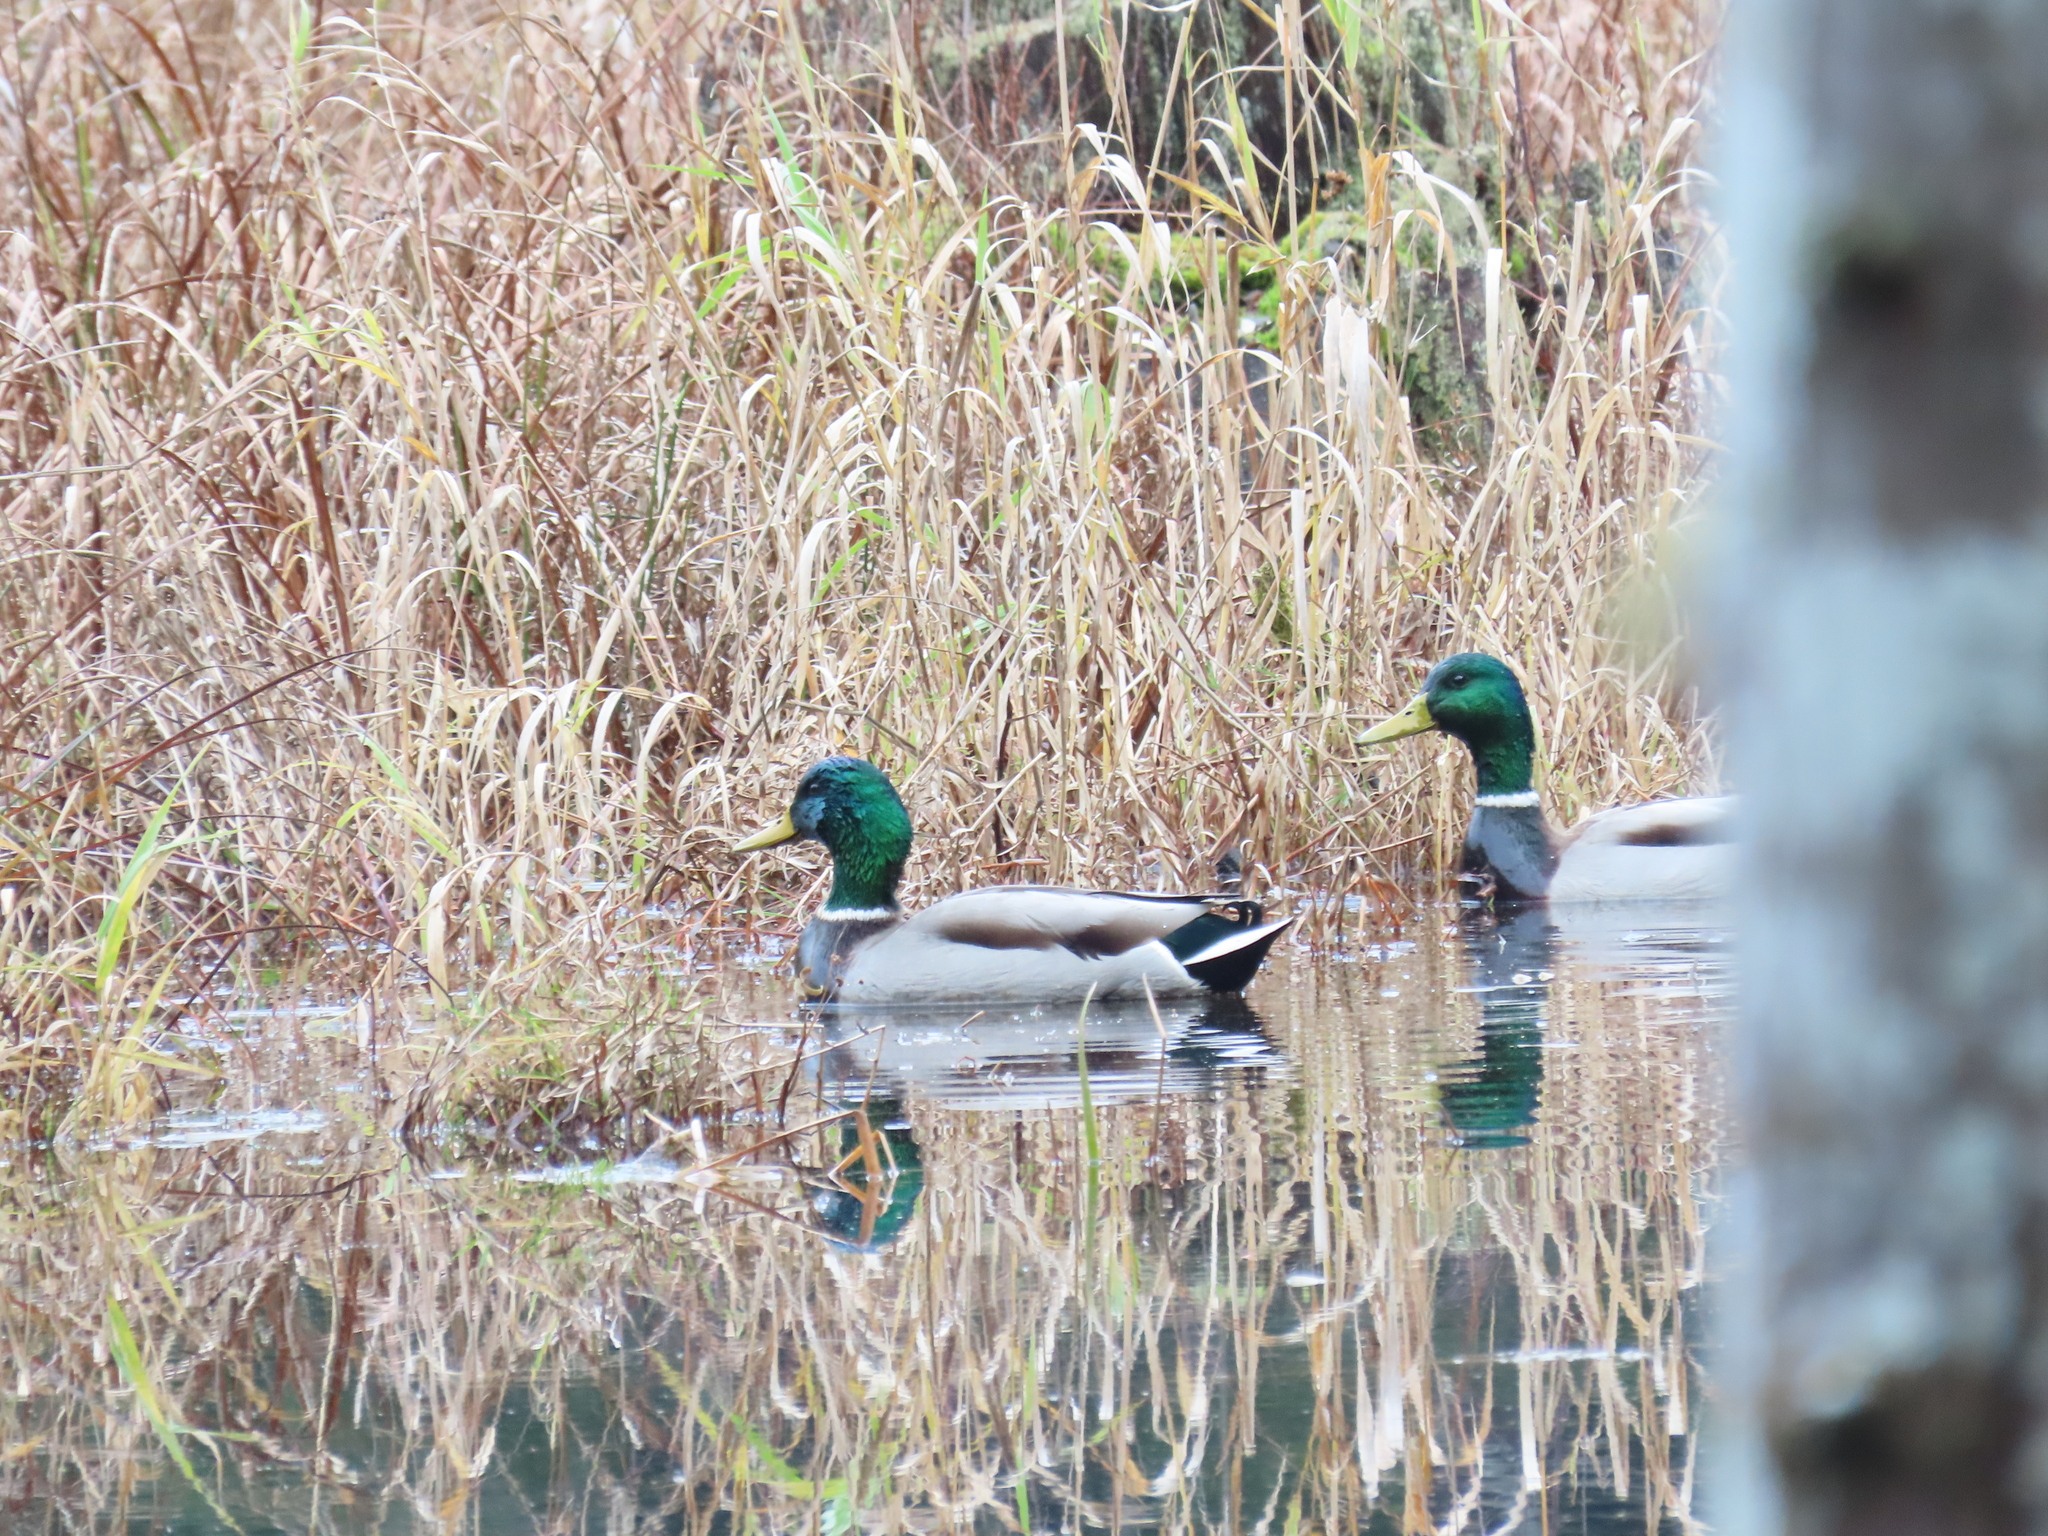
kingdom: Animalia
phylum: Chordata
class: Aves
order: Anseriformes
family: Anatidae
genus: Anas
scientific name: Anas platyrhynchos
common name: Mallard
